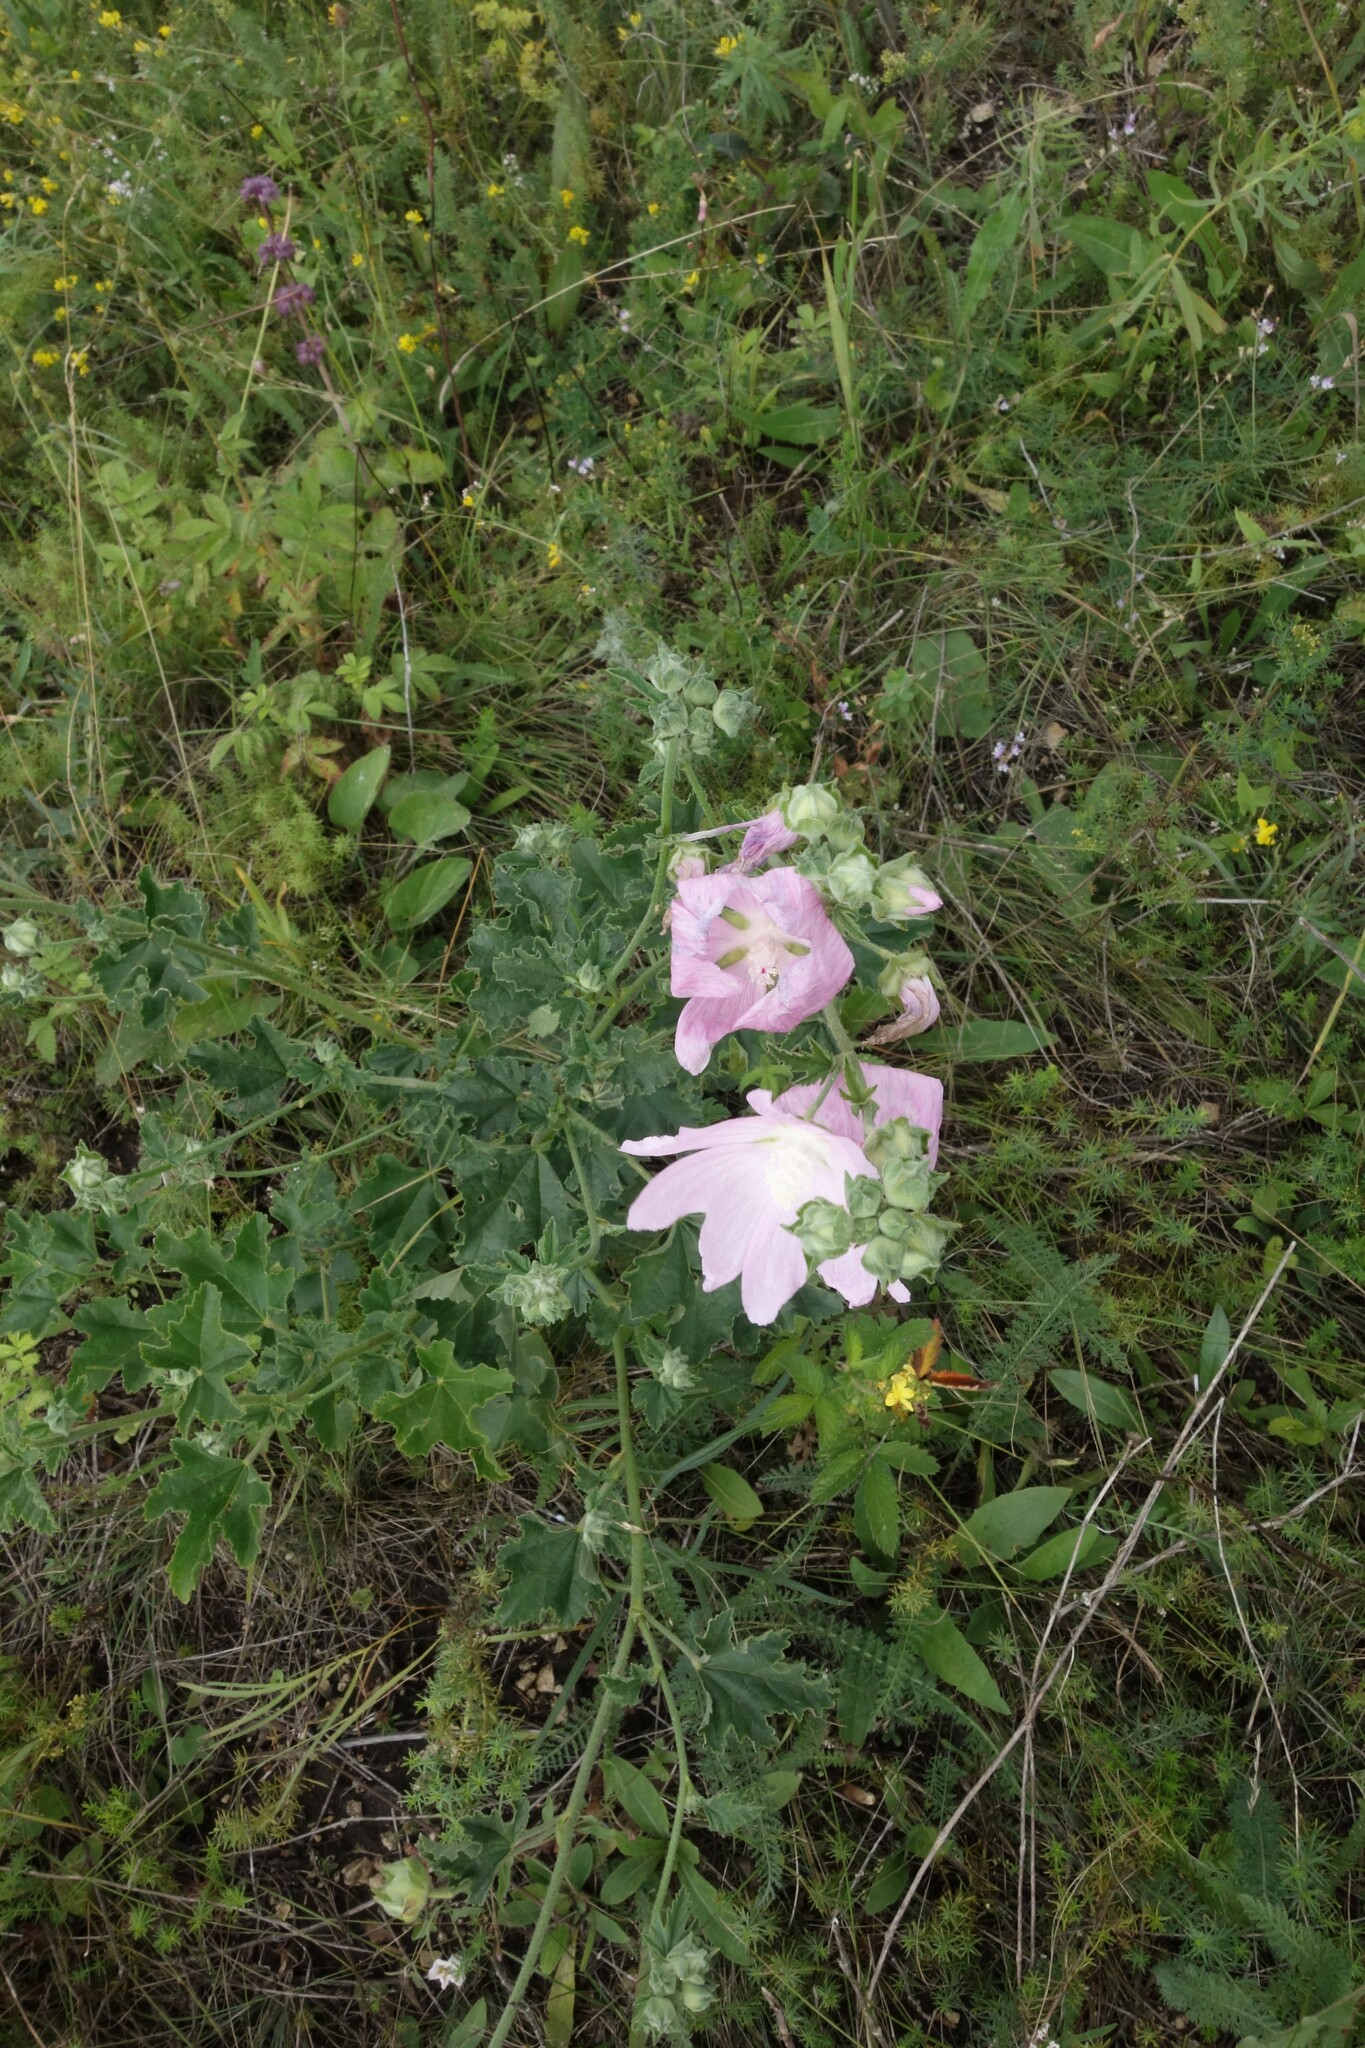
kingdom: Plantae
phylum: Tracheophyta
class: Magnoliopsida
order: Malvales
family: Malvaceae
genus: Malva
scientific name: Malva thuringiaca
